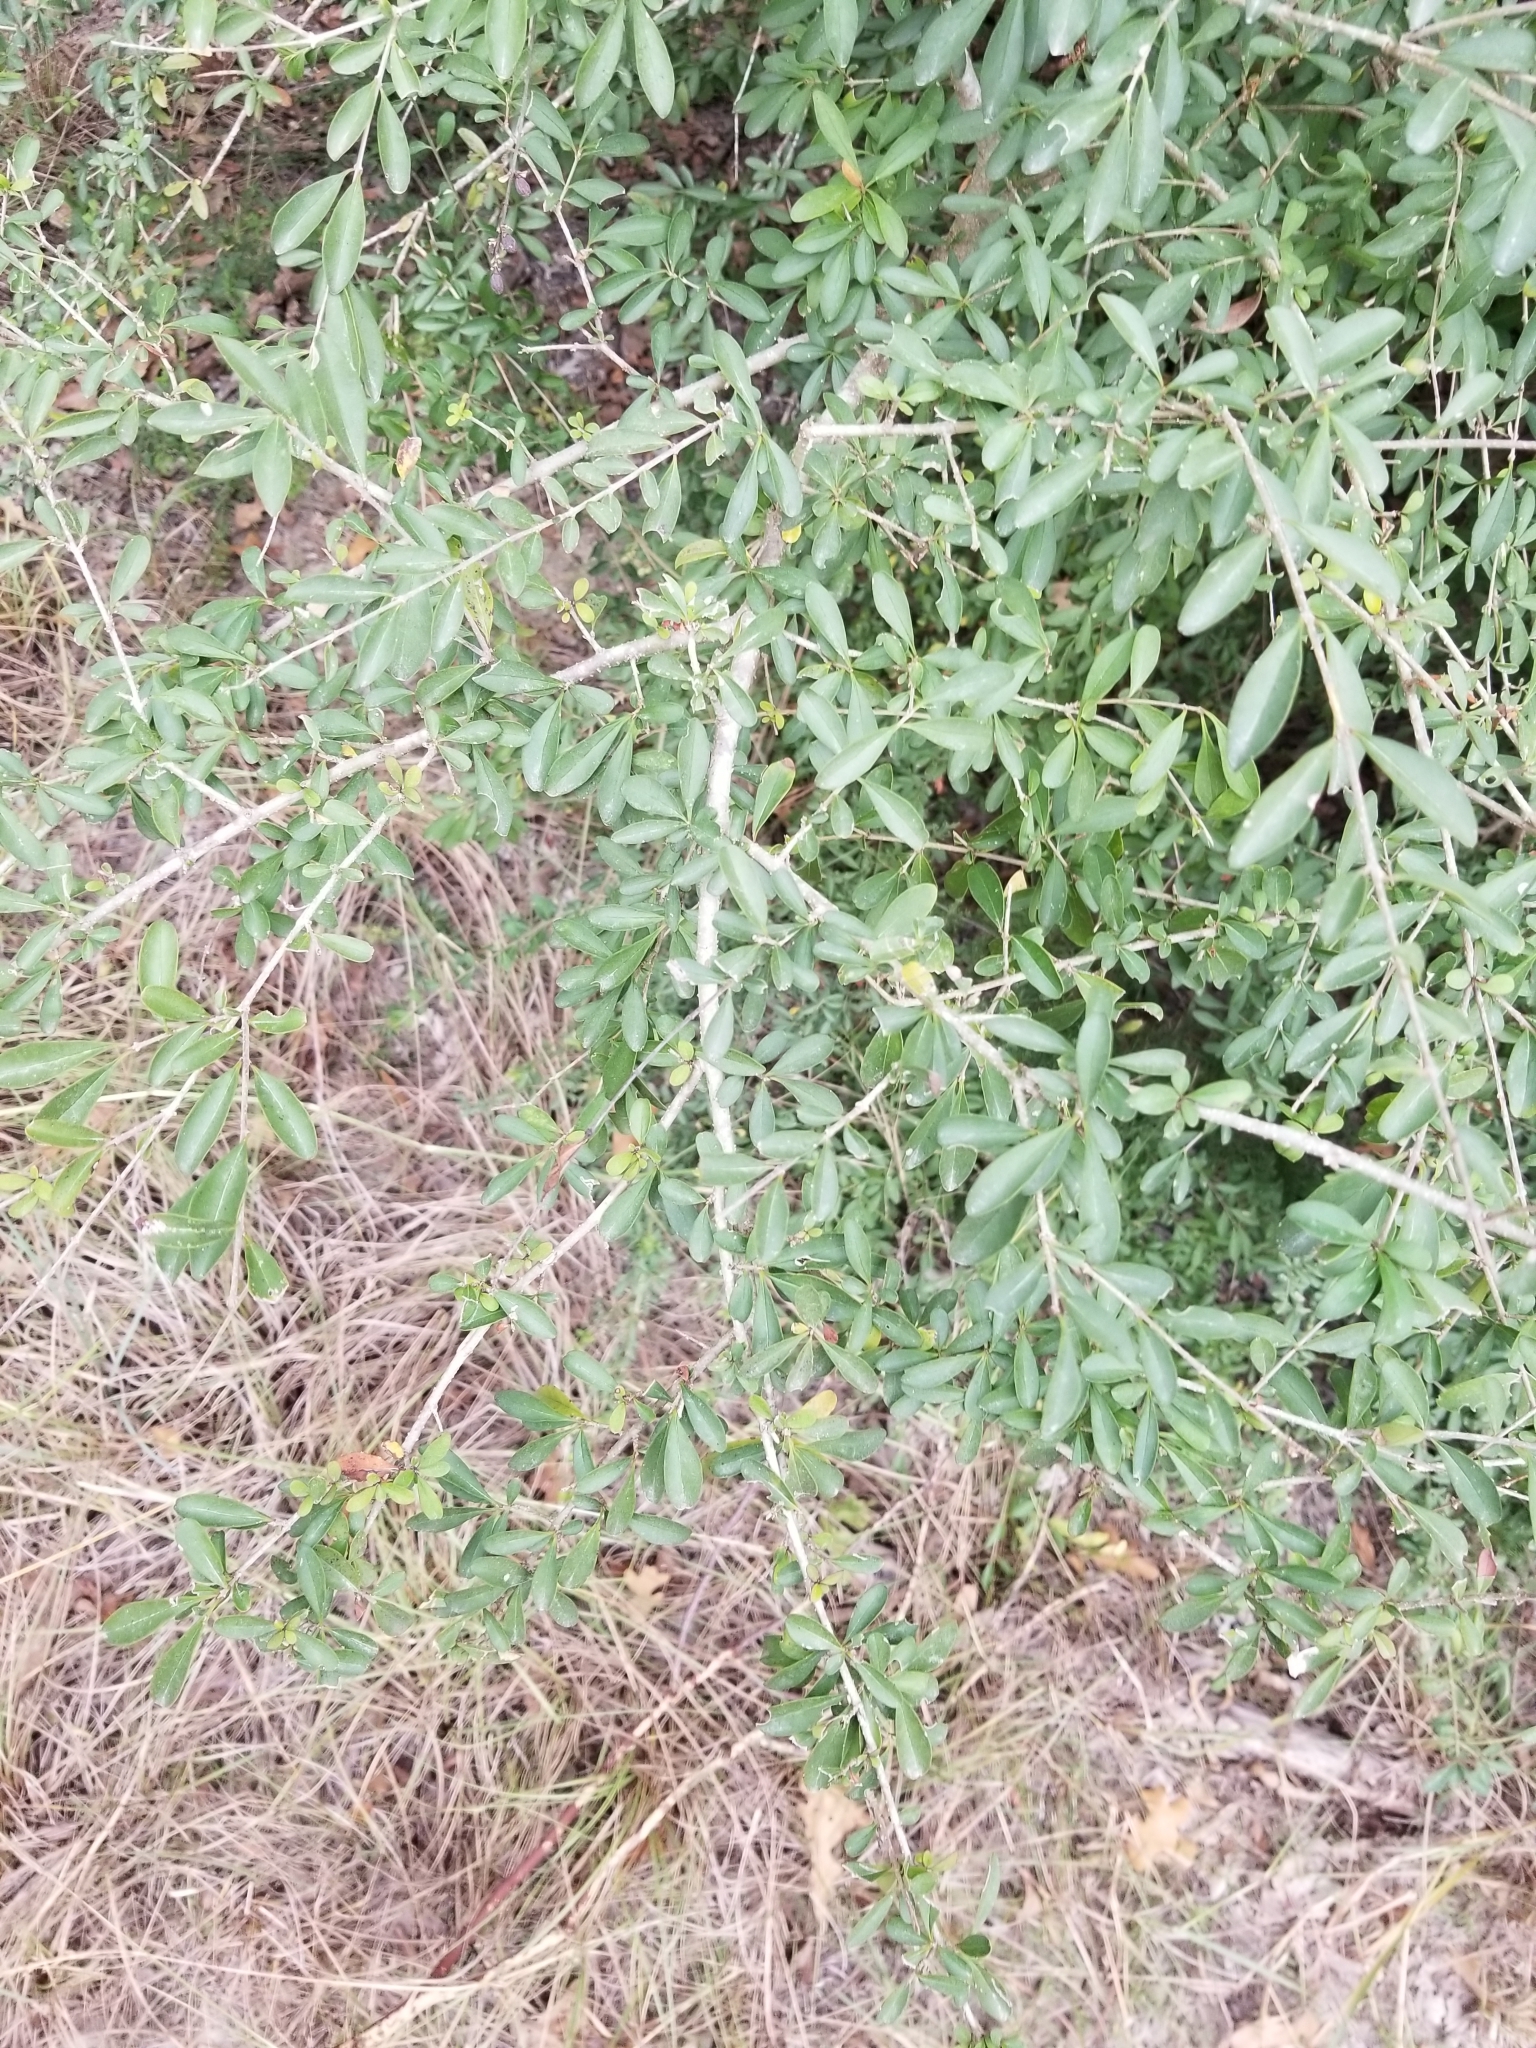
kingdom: Plantae
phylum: Tracheophyta
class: Magnoliopsida
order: Lamiales
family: Oleaceae
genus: Ligustrum
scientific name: Ligustrum quihoui
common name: Waxyleaf privet
